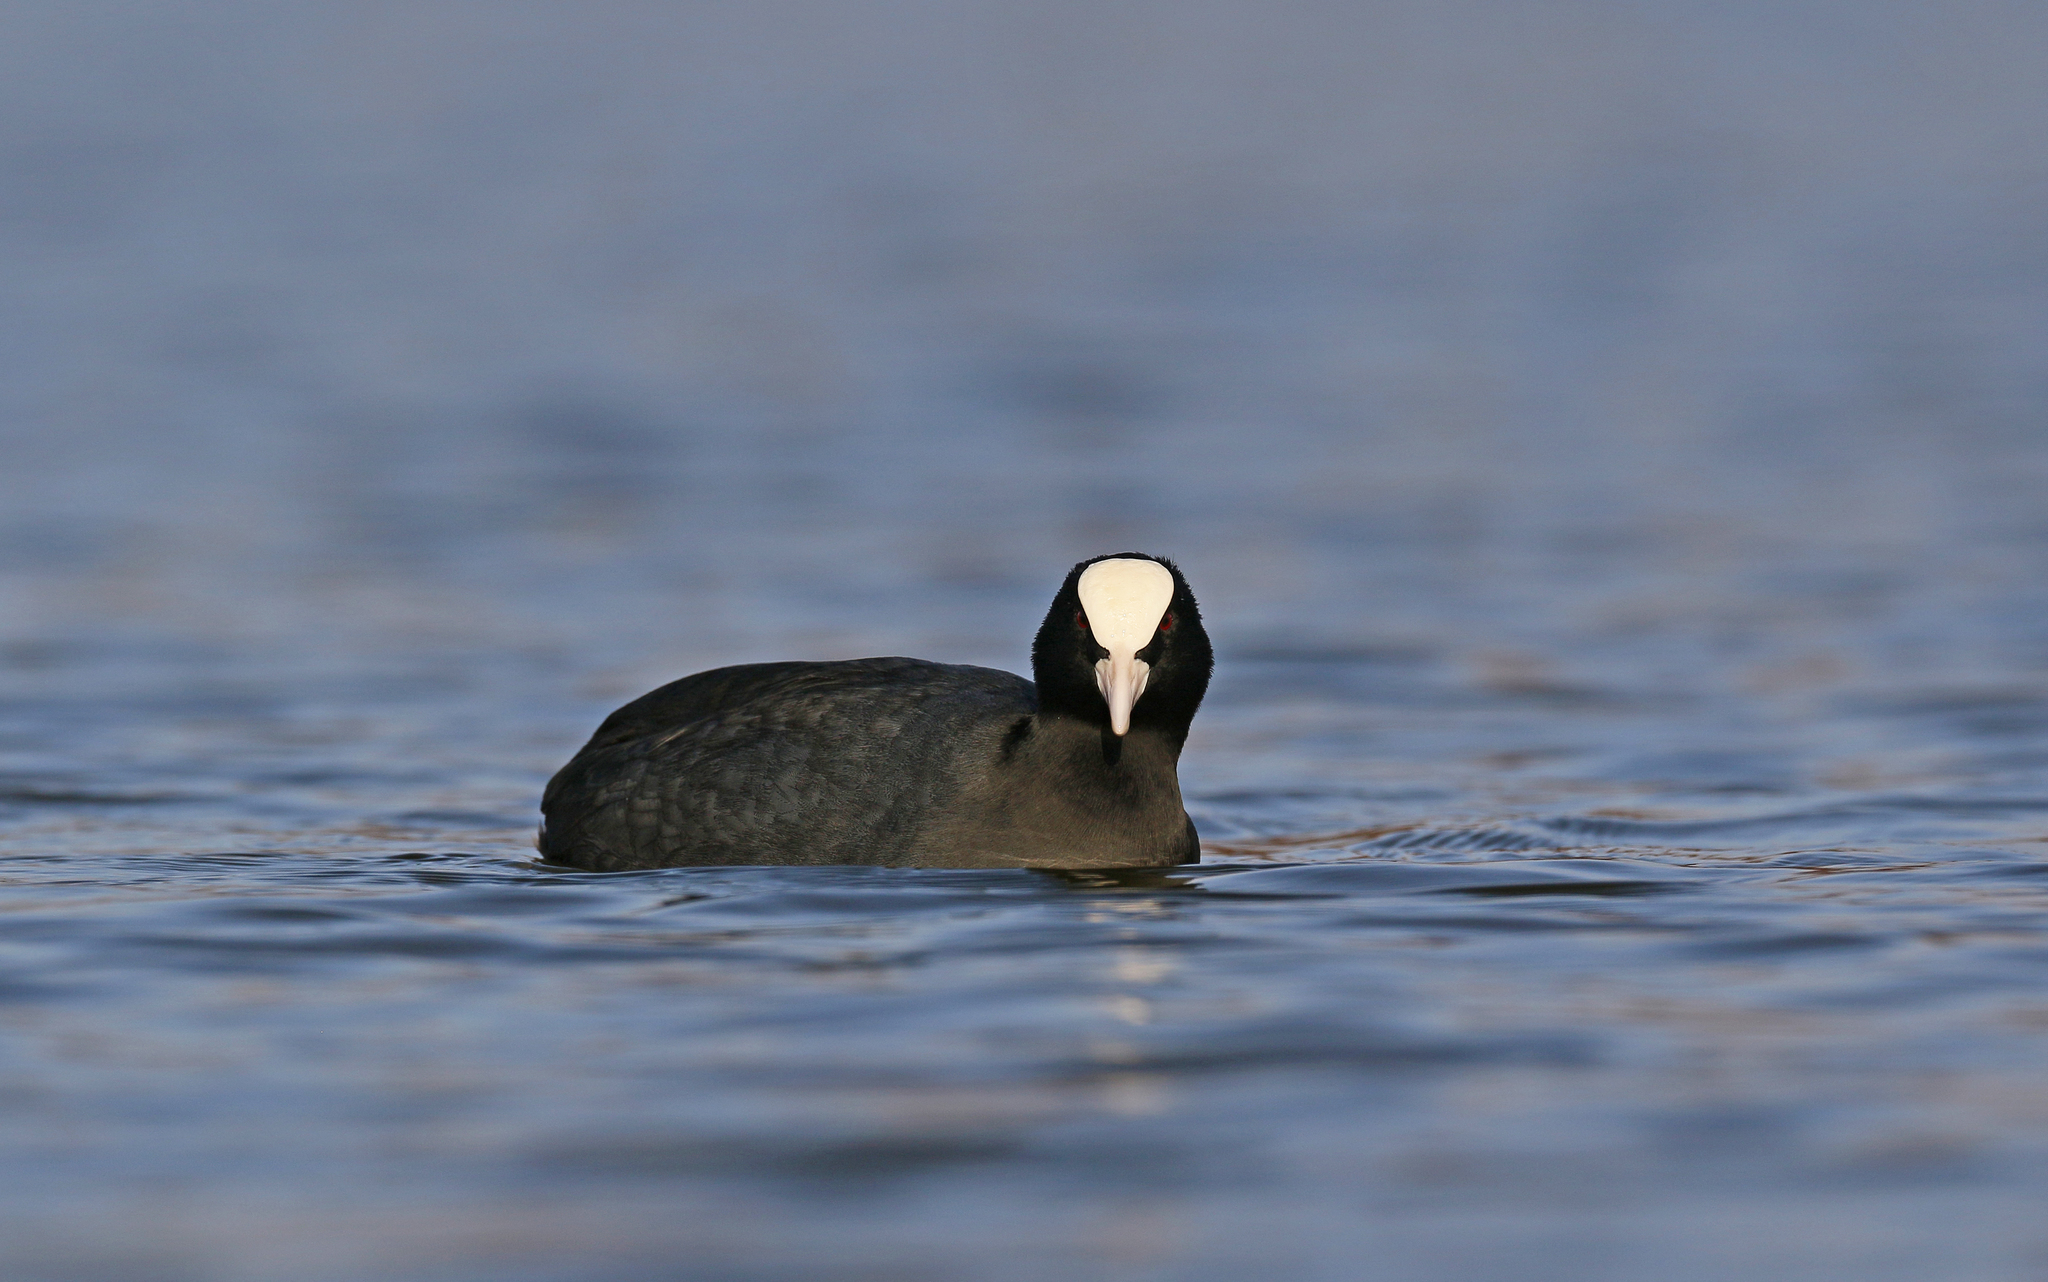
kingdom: Animalia
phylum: Chordata
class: Aves
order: Gruiformes
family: Rallidae
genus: Fulica
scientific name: Fulica atra
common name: Eurasian coot
